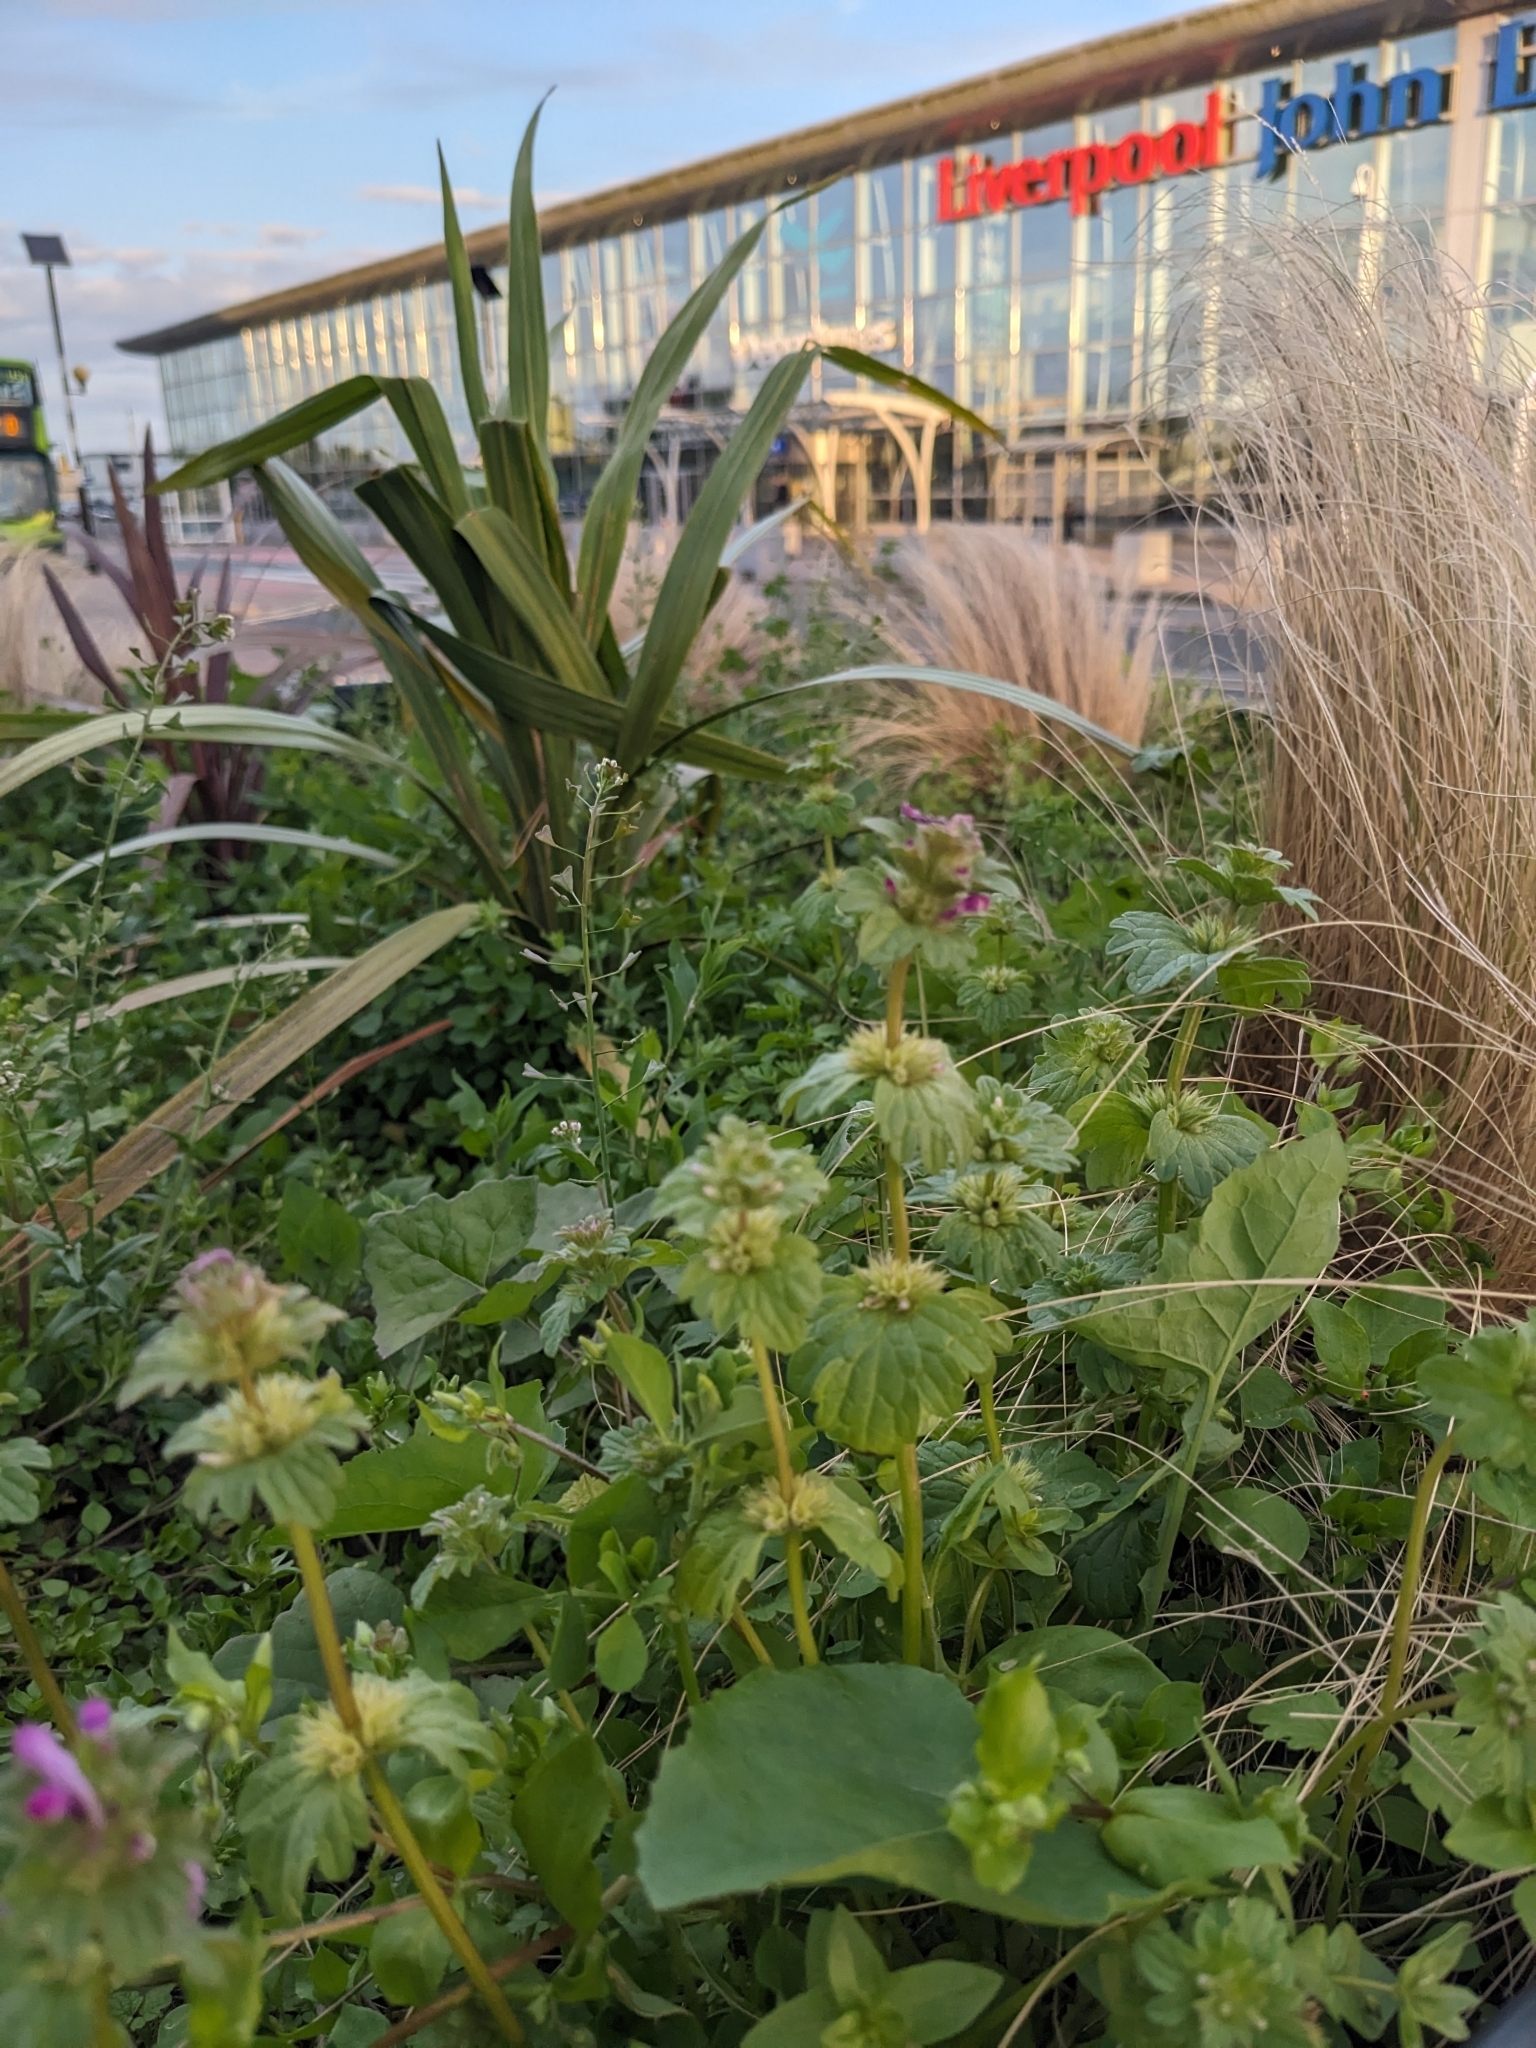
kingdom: Plantae
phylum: Tracheophyta
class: Magnoliopsida
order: Lamiales
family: Lamiaceae
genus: Lamium
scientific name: Lamium amplexicaule
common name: Henbit dead-nettle
